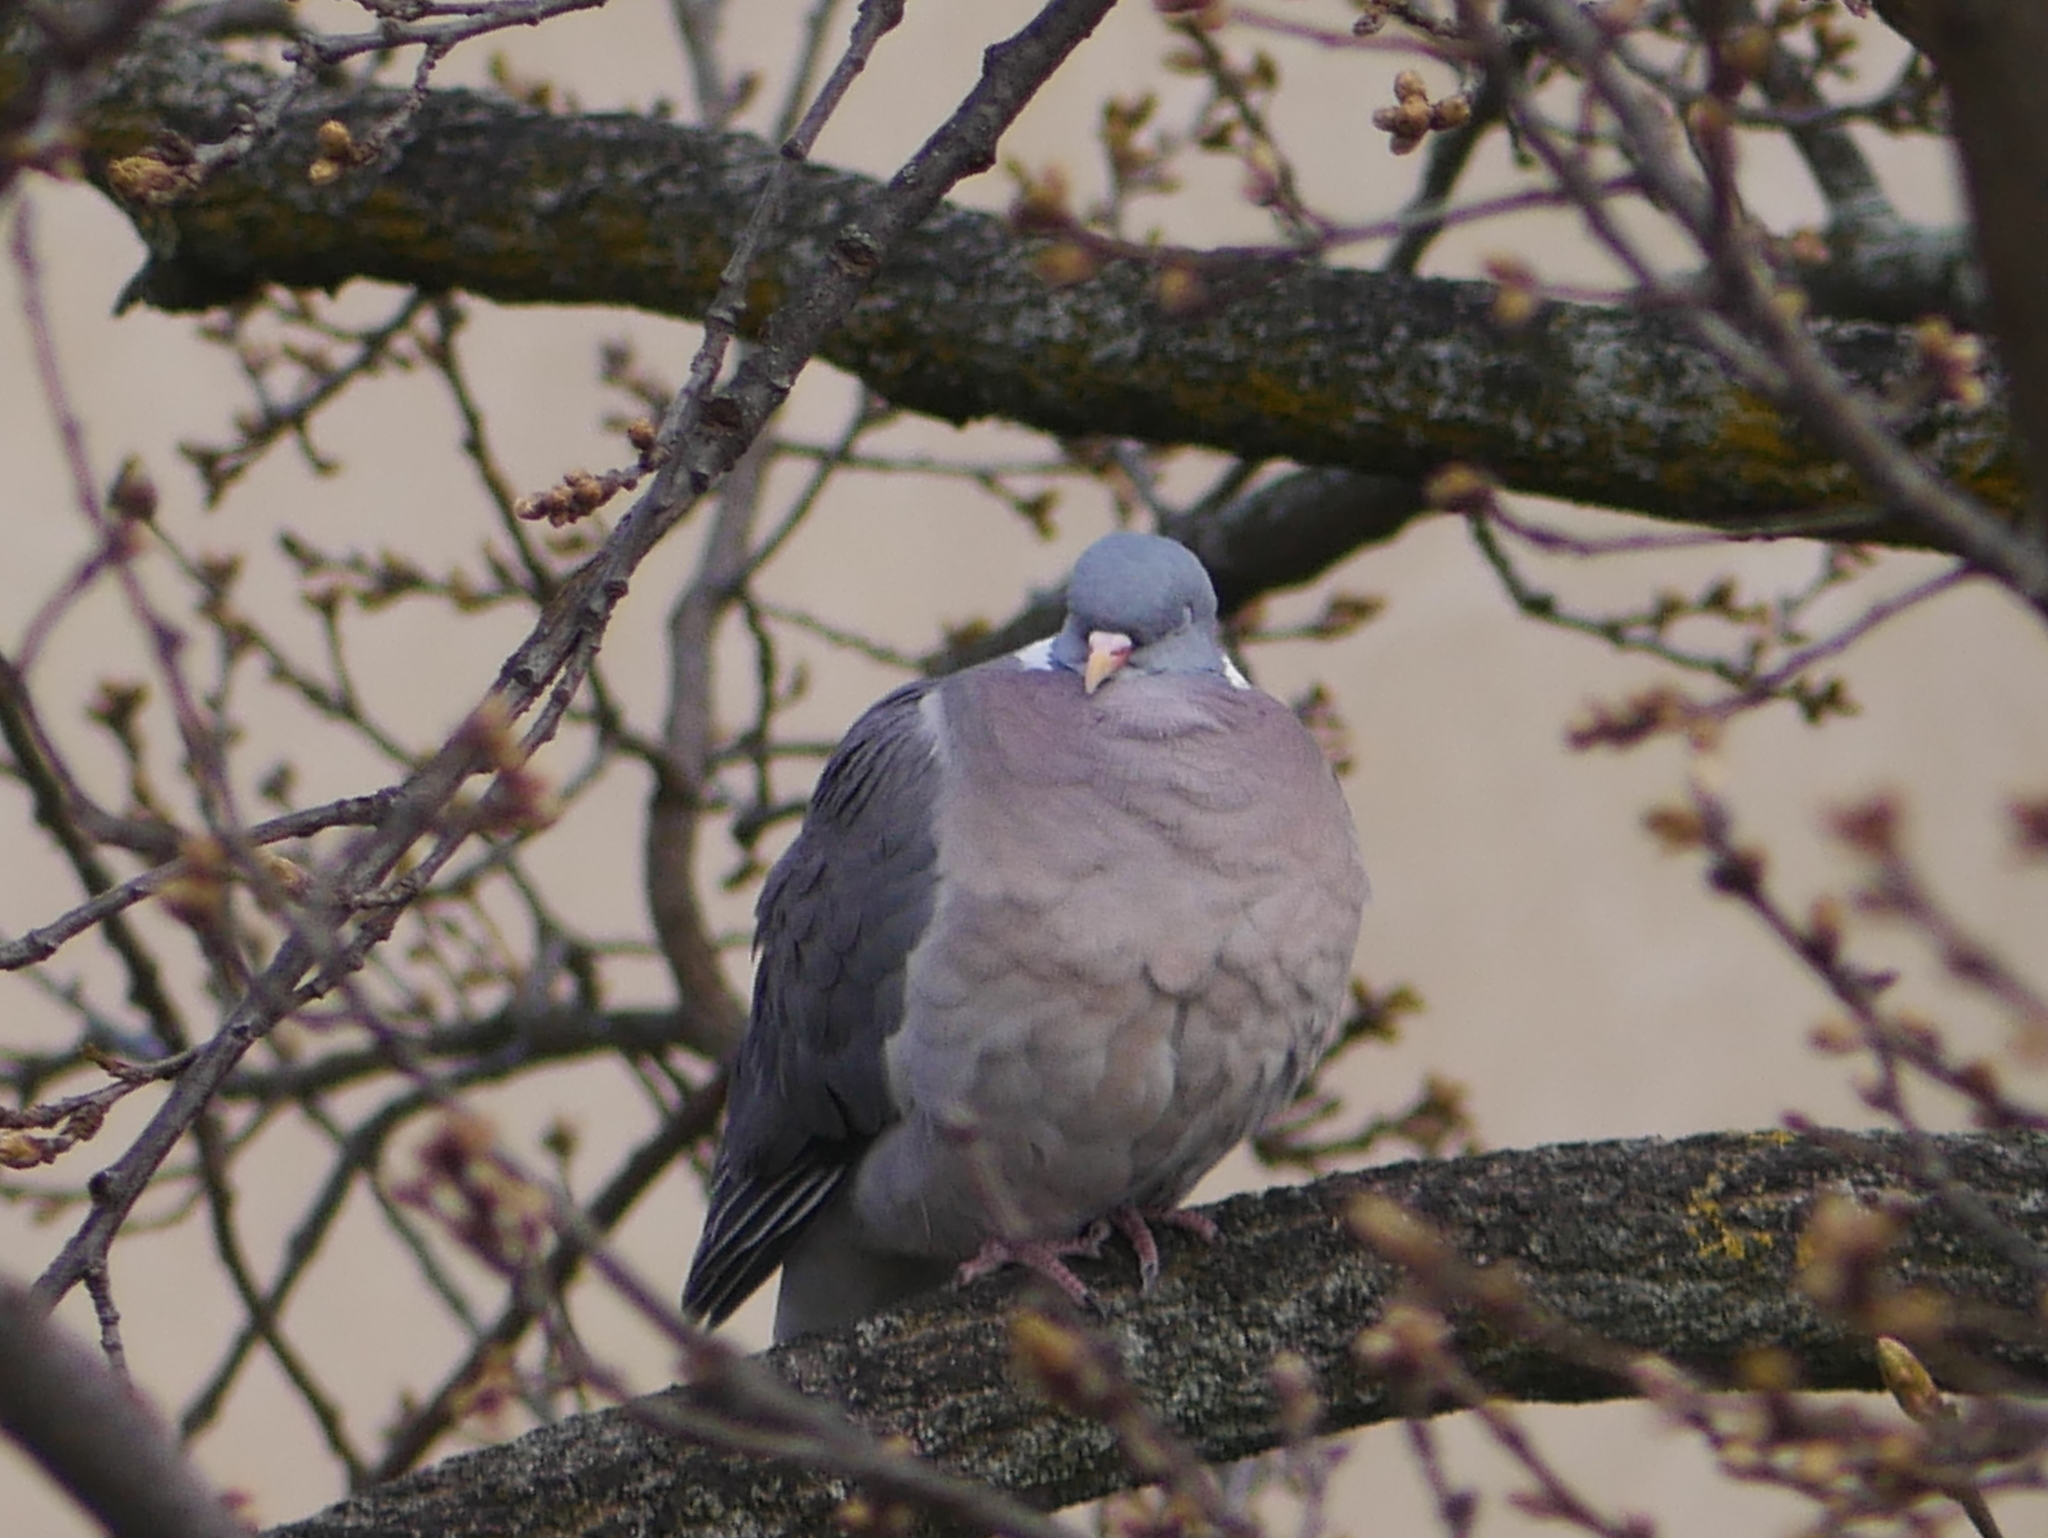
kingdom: Animalia
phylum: Chordata
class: Aves
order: Columbiformes
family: Columbidae
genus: Columba
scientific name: Columba palumbus
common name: Common wood pigeon
